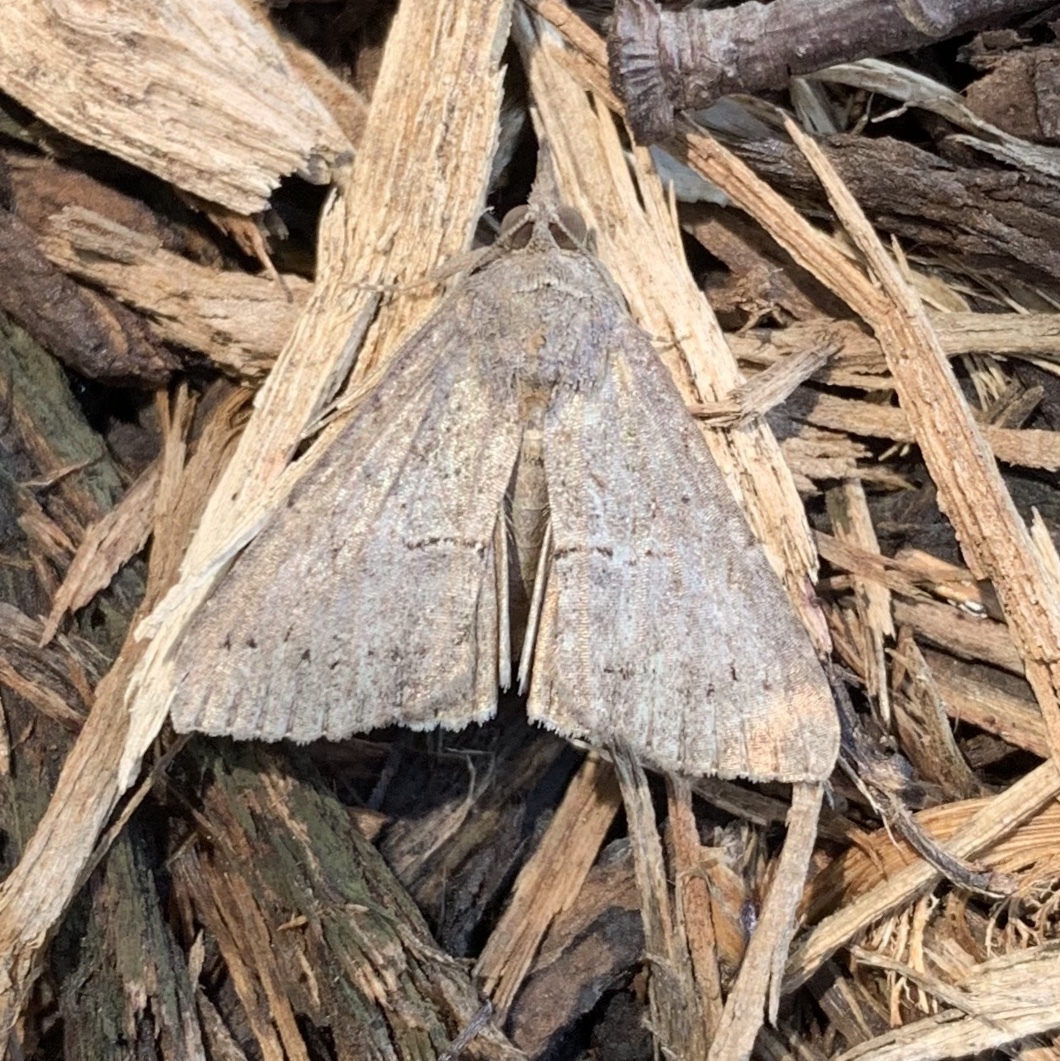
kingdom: Animalia
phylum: Arthropoda
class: Insecta
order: Lepidoptera
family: Erebidae
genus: Hypena
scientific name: Hypena scabra
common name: Green cloverworm
